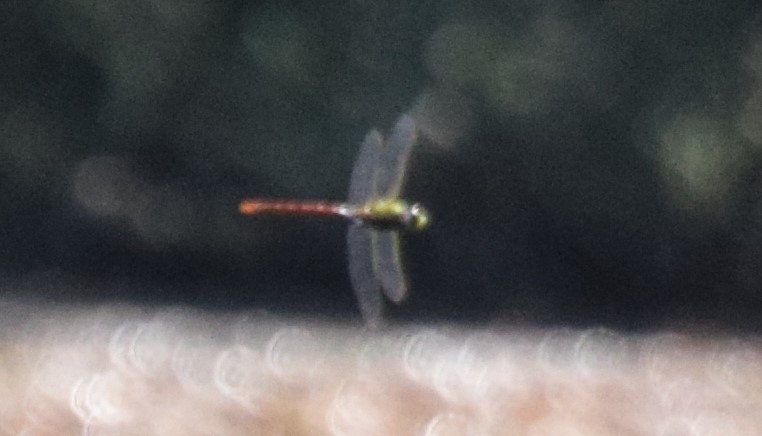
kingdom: Animalia
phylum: Arthropoda
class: Insecta
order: Odonata
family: Aeshnidae
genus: Anax
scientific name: Anax longipes
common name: Comet darner
